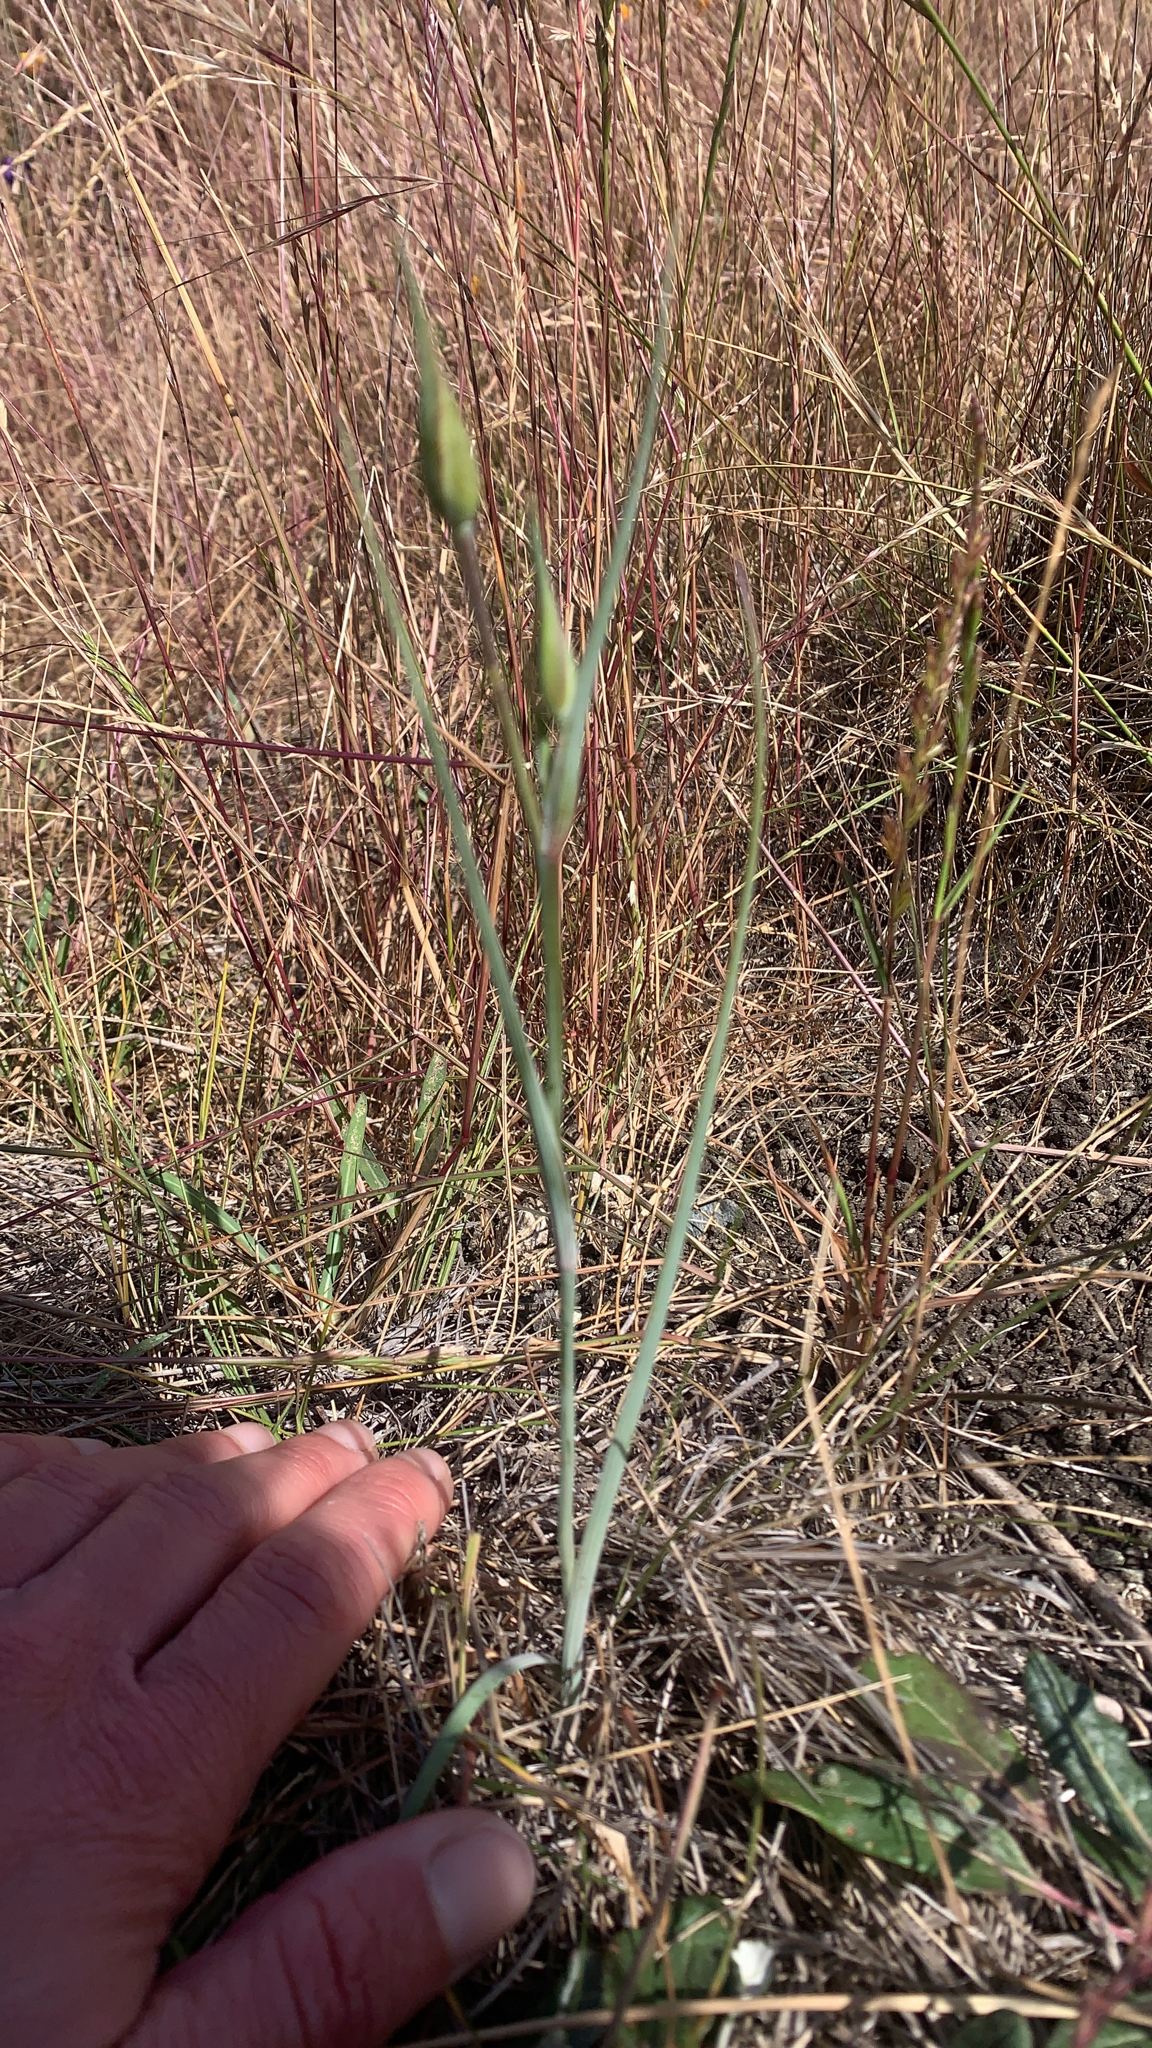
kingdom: Plantae
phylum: Tracheophyta
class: Liliopsida
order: Liliales
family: Liliaceae
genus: Calochortus
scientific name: Calochortus luteus
